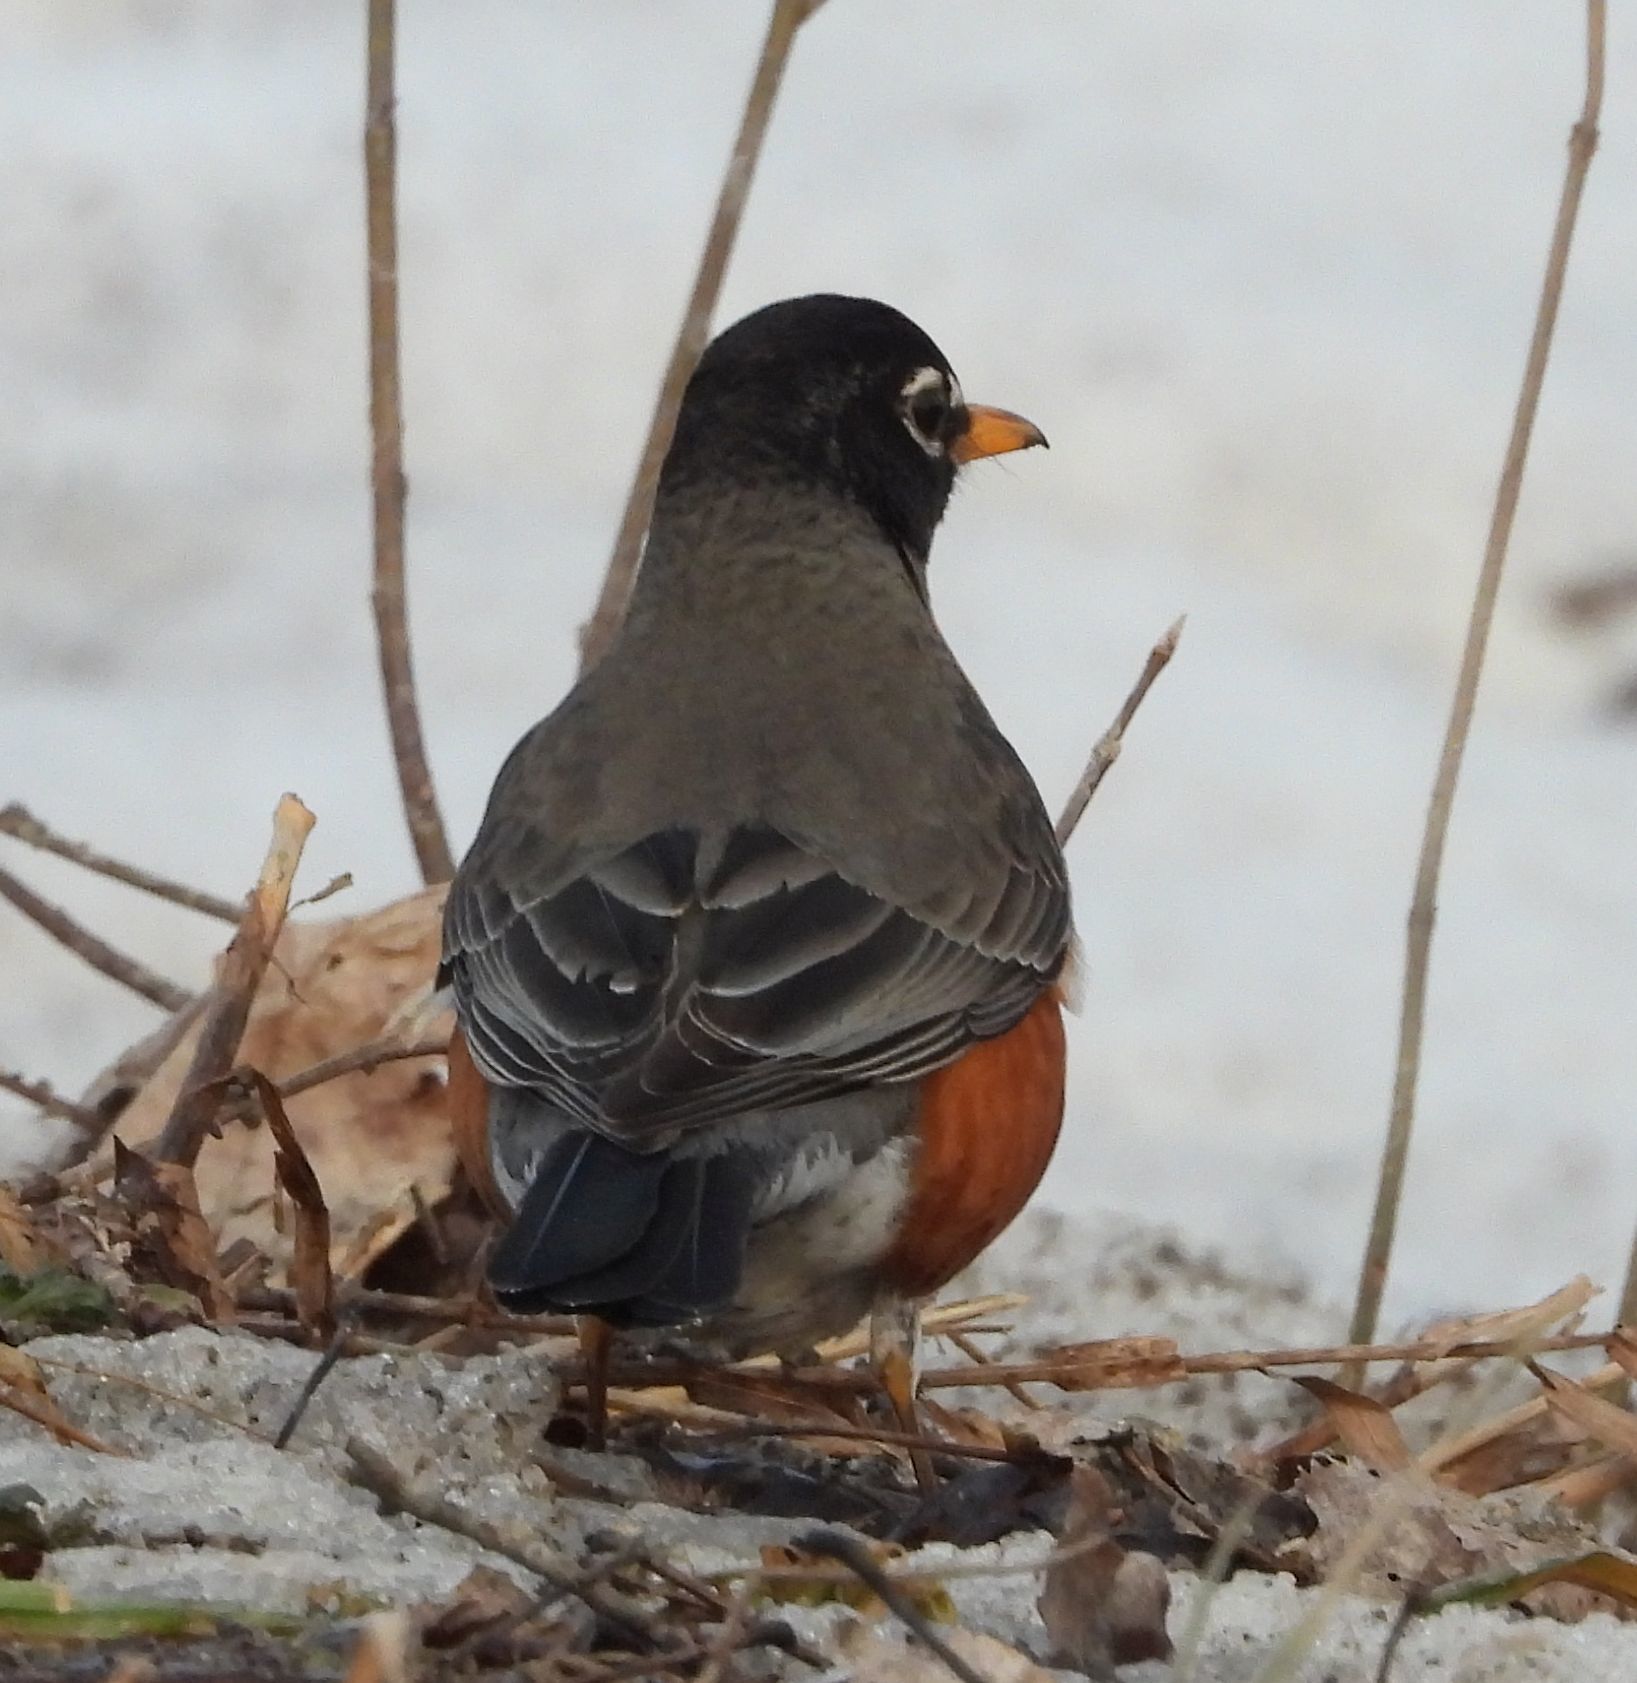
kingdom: Animalia
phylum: Chordata
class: Aves
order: Passeriformes
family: Turdidae
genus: Turdus
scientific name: Turdus migratorius
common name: American robin
